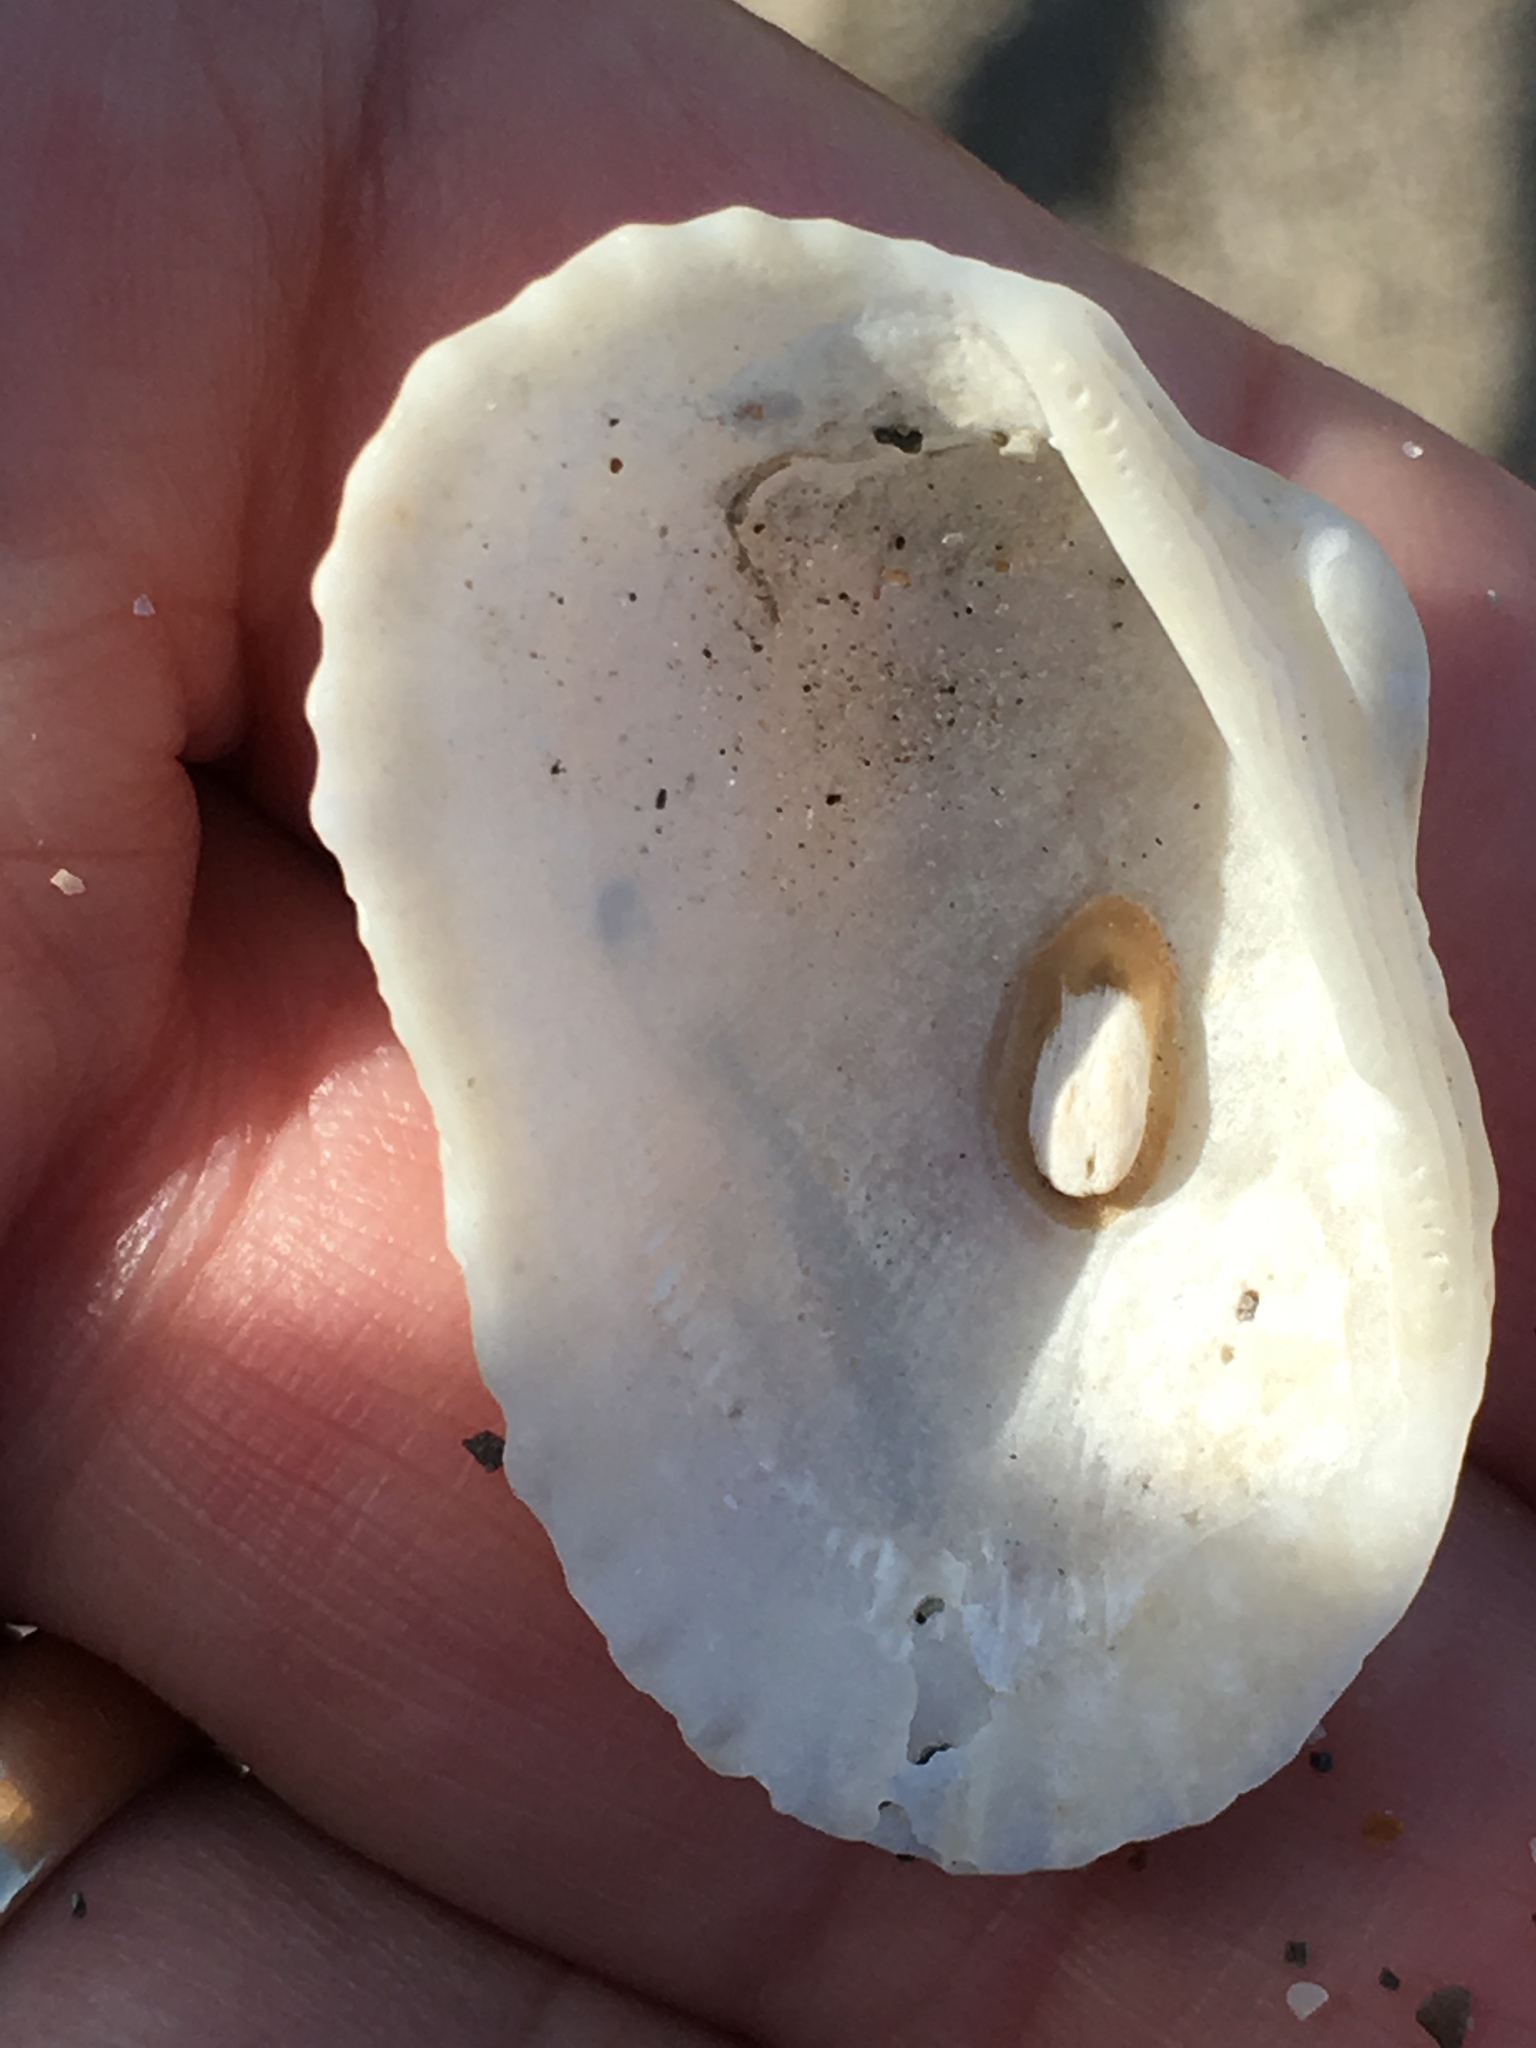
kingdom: Animalia
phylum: Mollusca
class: Bivalvia
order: Arcida
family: Arcidae
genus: Anadara
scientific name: Anadara transversa
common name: Transverse ark
